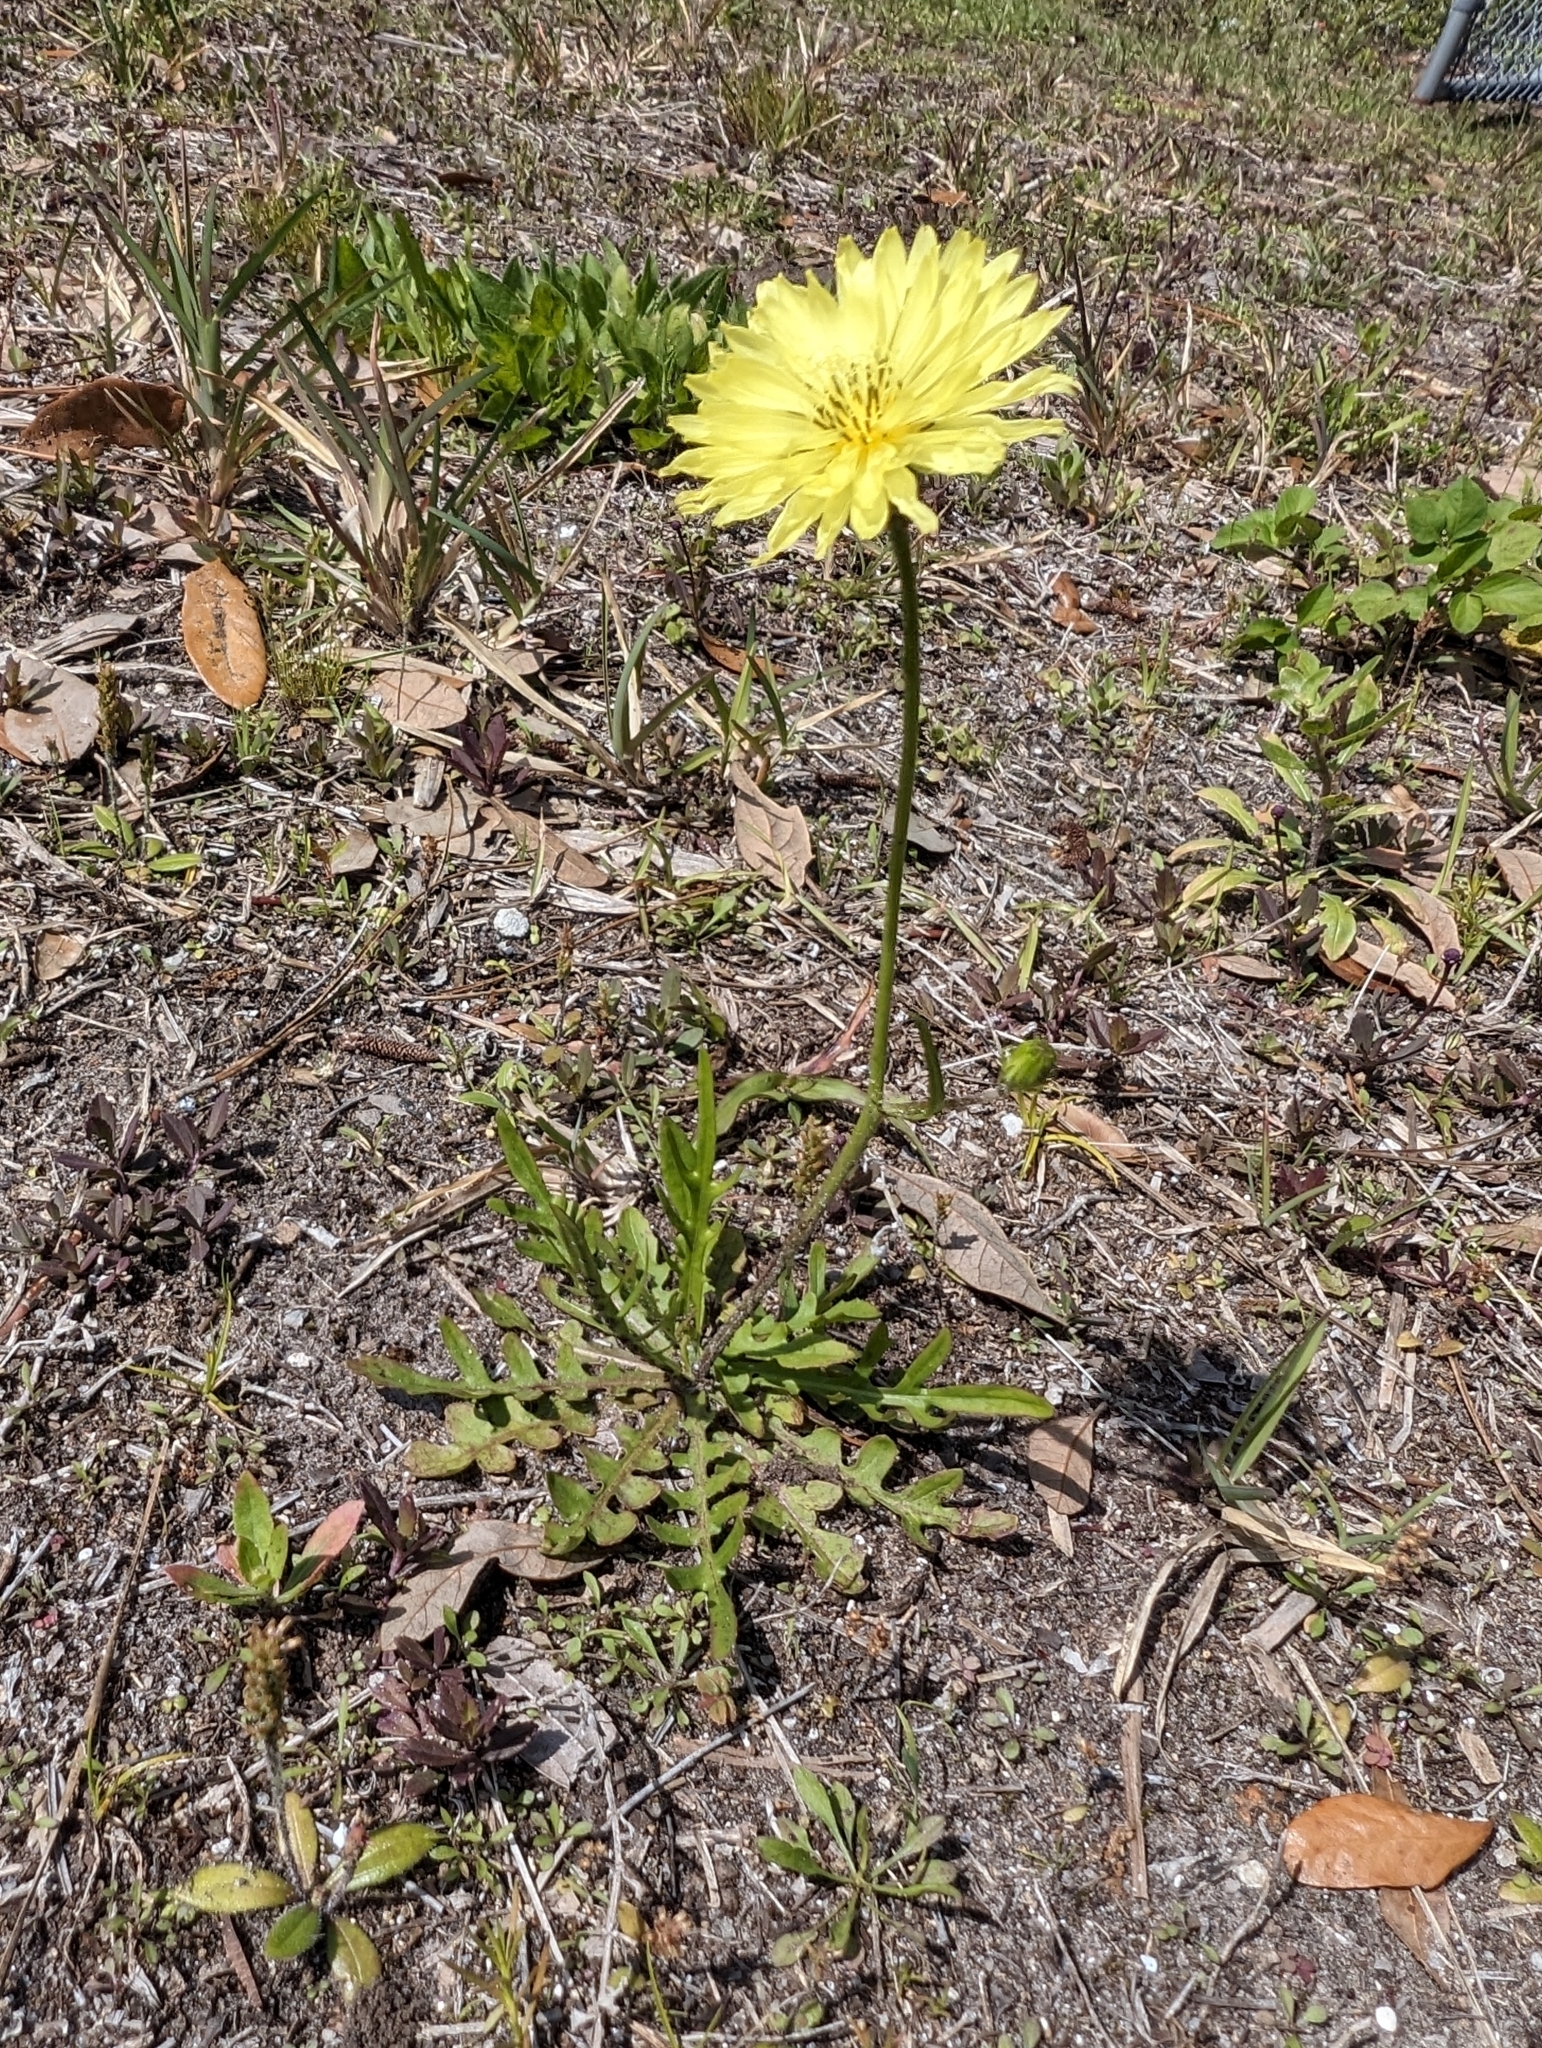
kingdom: Plantae
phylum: Tracheophyta
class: Magnoliopsida
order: Asterales
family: Asteraceae
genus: Pyrrhopappus
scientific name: Pyrrhopappus carolinianus
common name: Carolina desert-chicory
